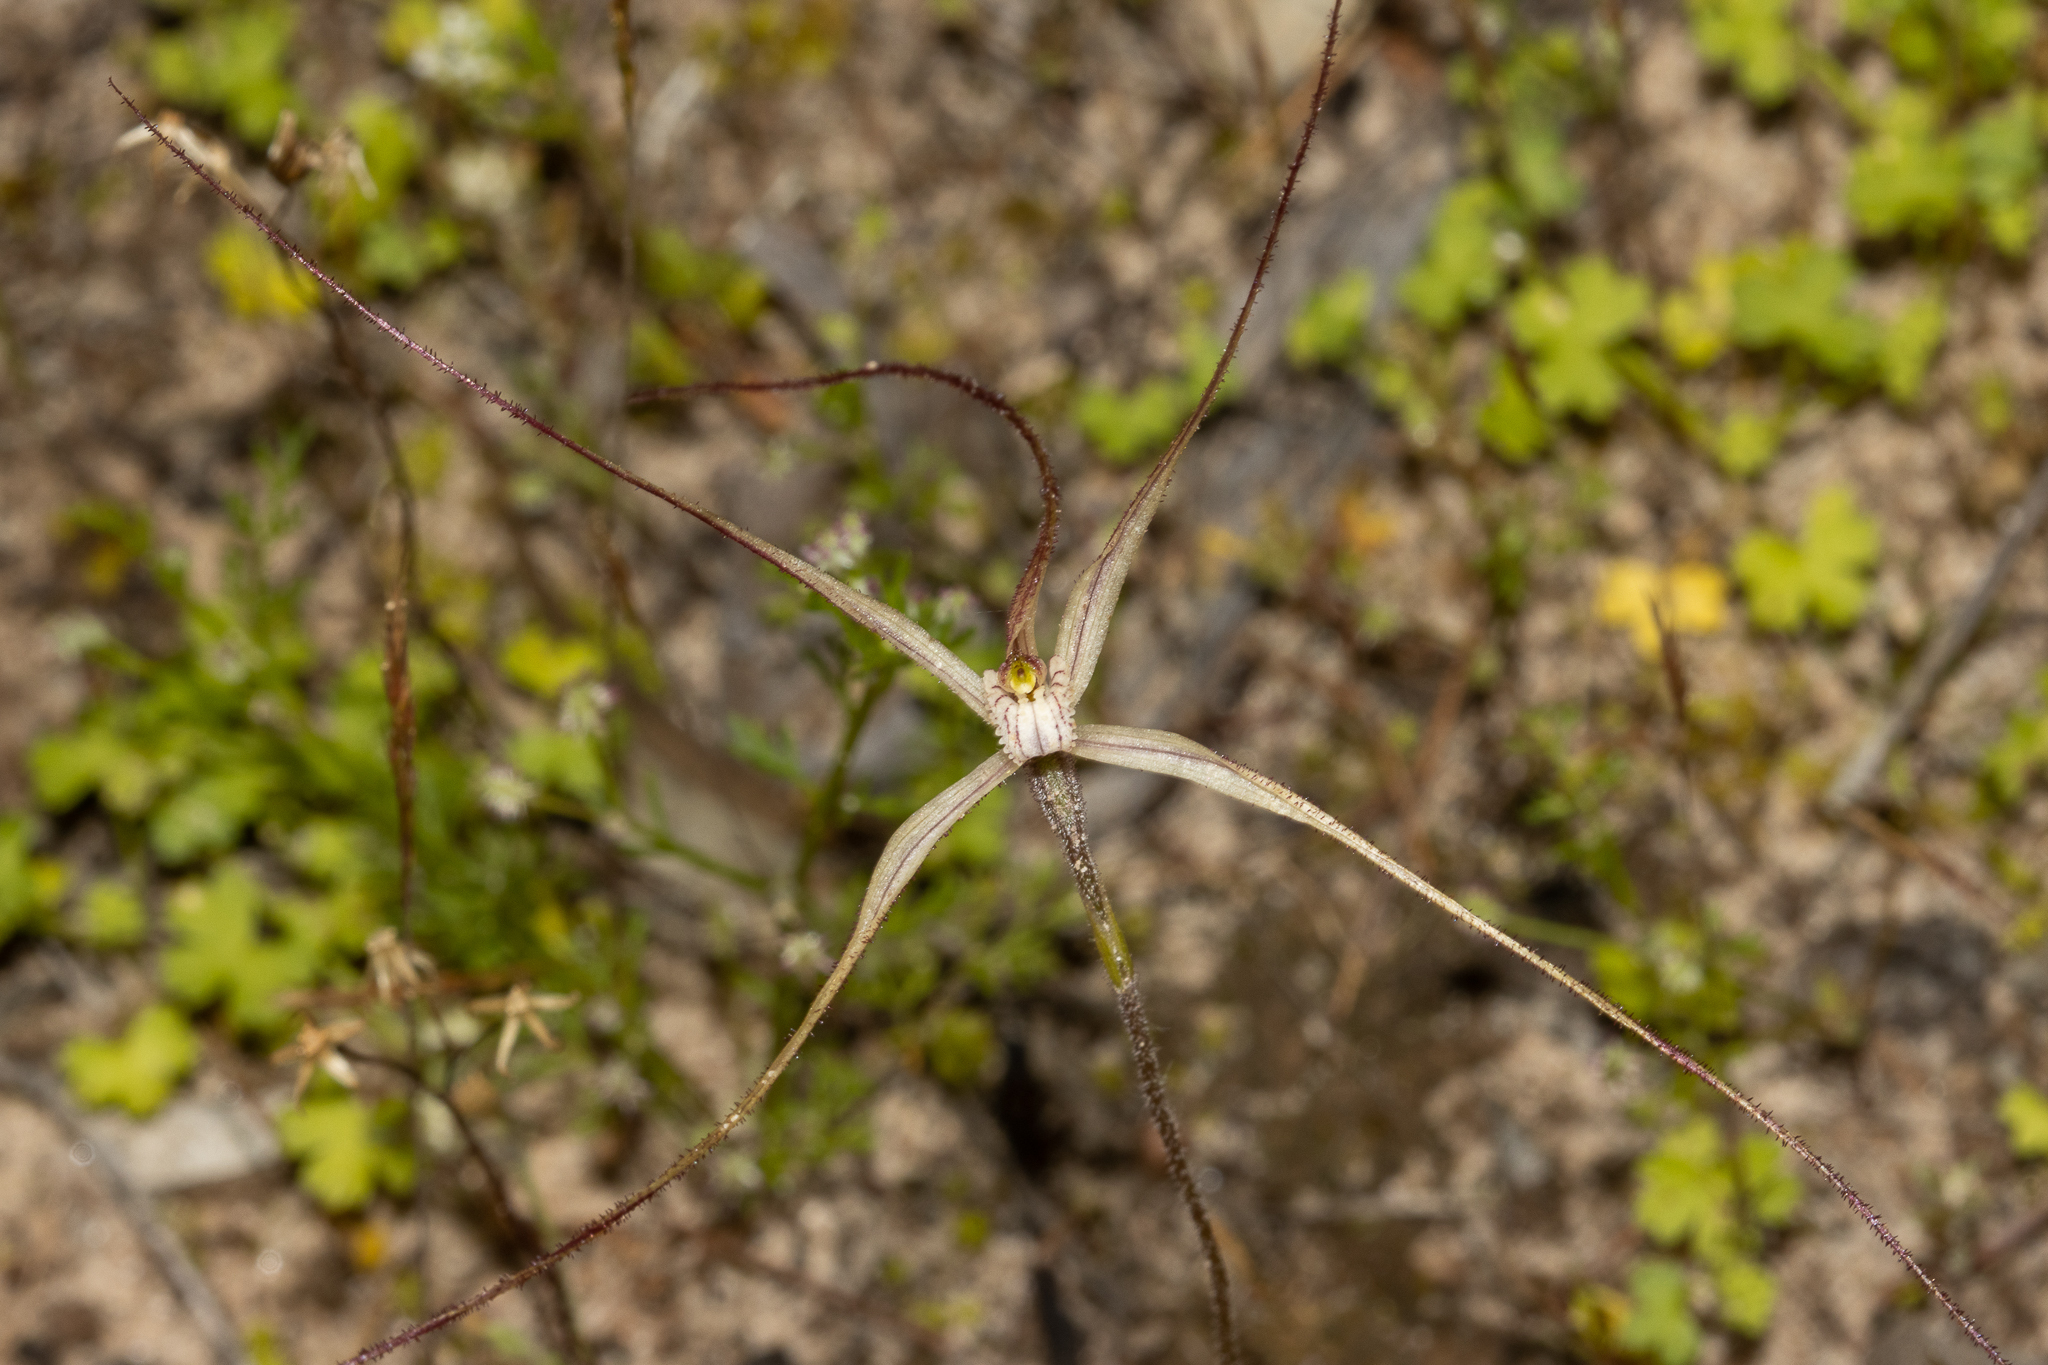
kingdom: Plantae
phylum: Tracheophyta
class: Liliopsida
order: Asparagales
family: Orchidaceae
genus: Caladenia
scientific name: Caladenia capillata
